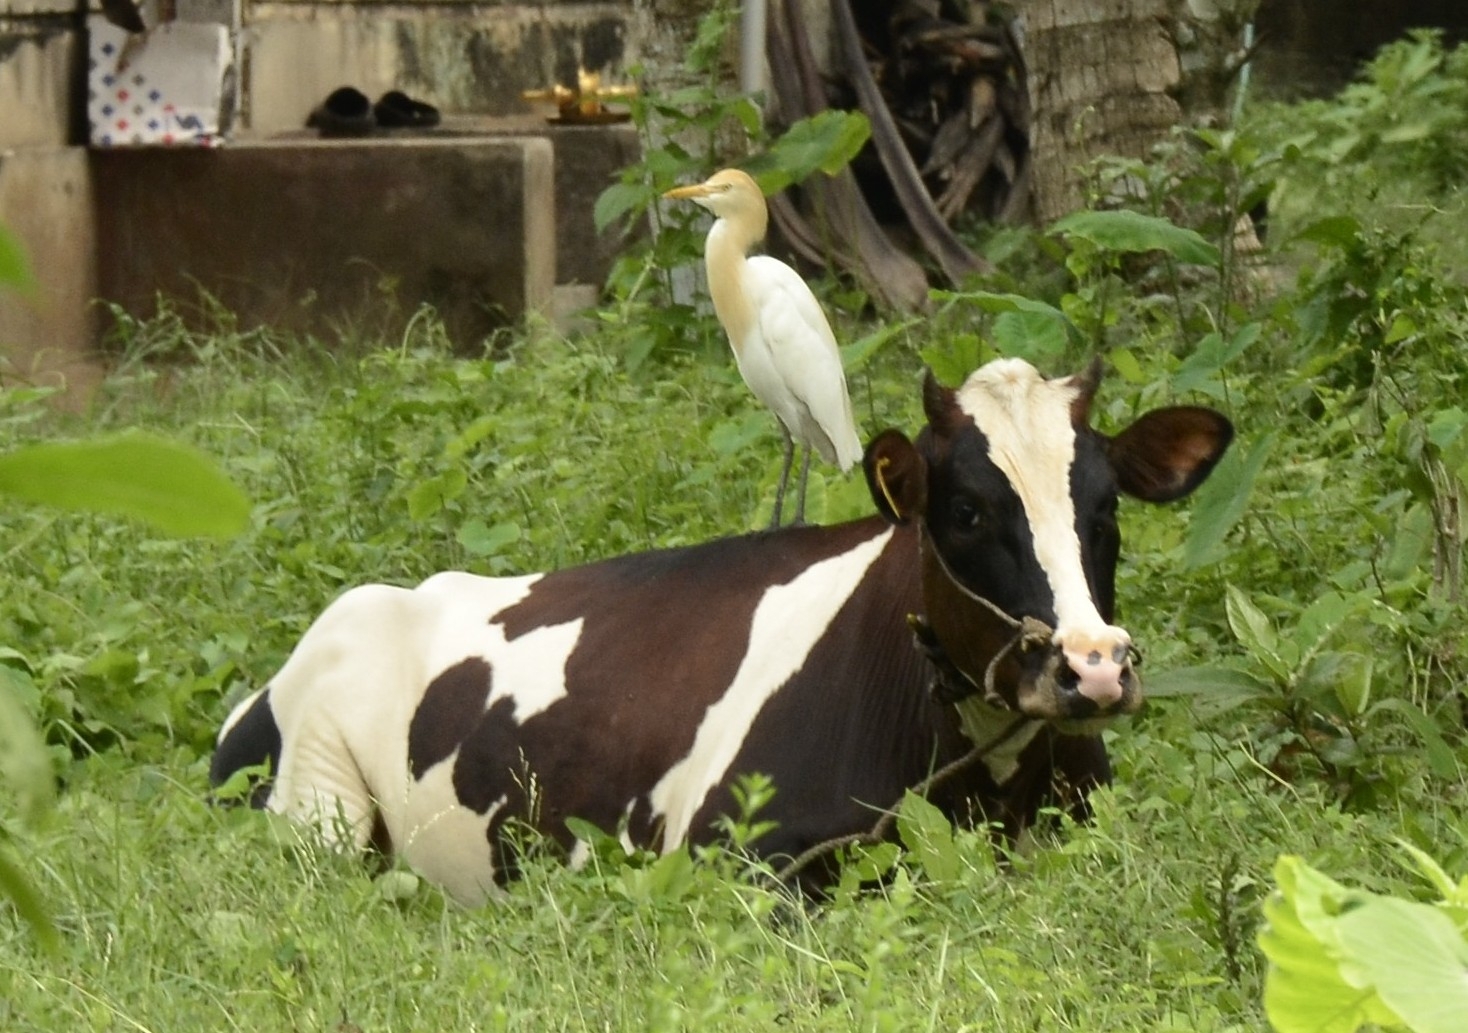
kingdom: Animalia
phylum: Chordata
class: Aves
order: Pelecaniformes
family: Ardeidae
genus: Bubulcus
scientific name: Bubulcus coromandus
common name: Eastern cattle egret
